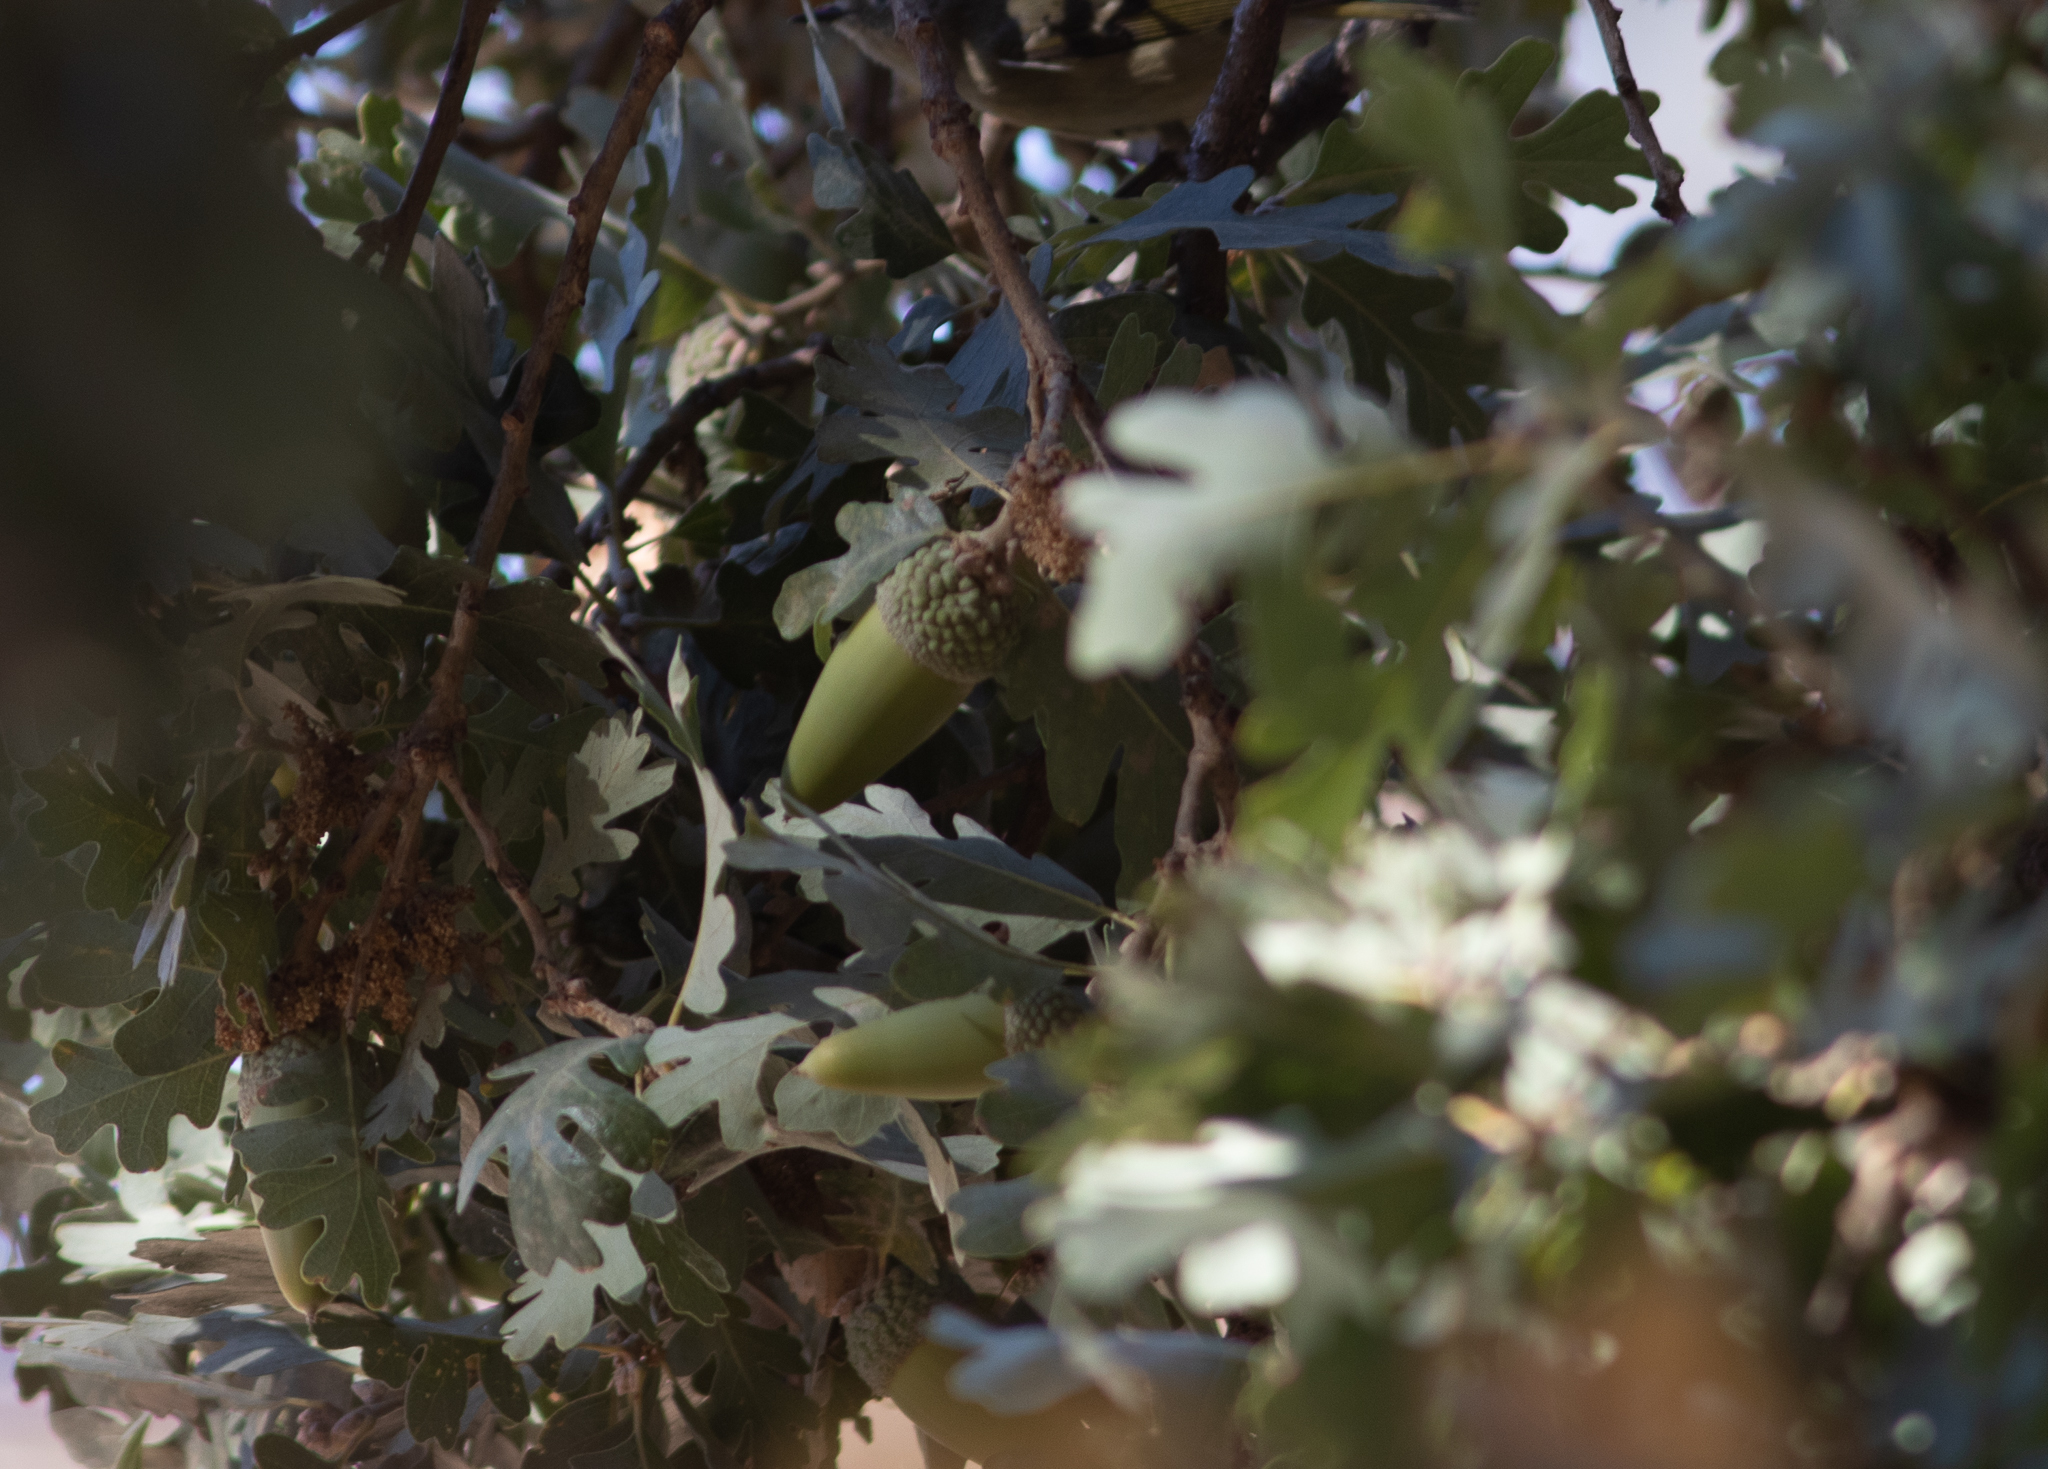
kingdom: Plantae
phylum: Tracheophyta
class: Magnoliopsida
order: Fagales
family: Fagaceae
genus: Quercus
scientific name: Quercus lobata
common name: Valley oak
